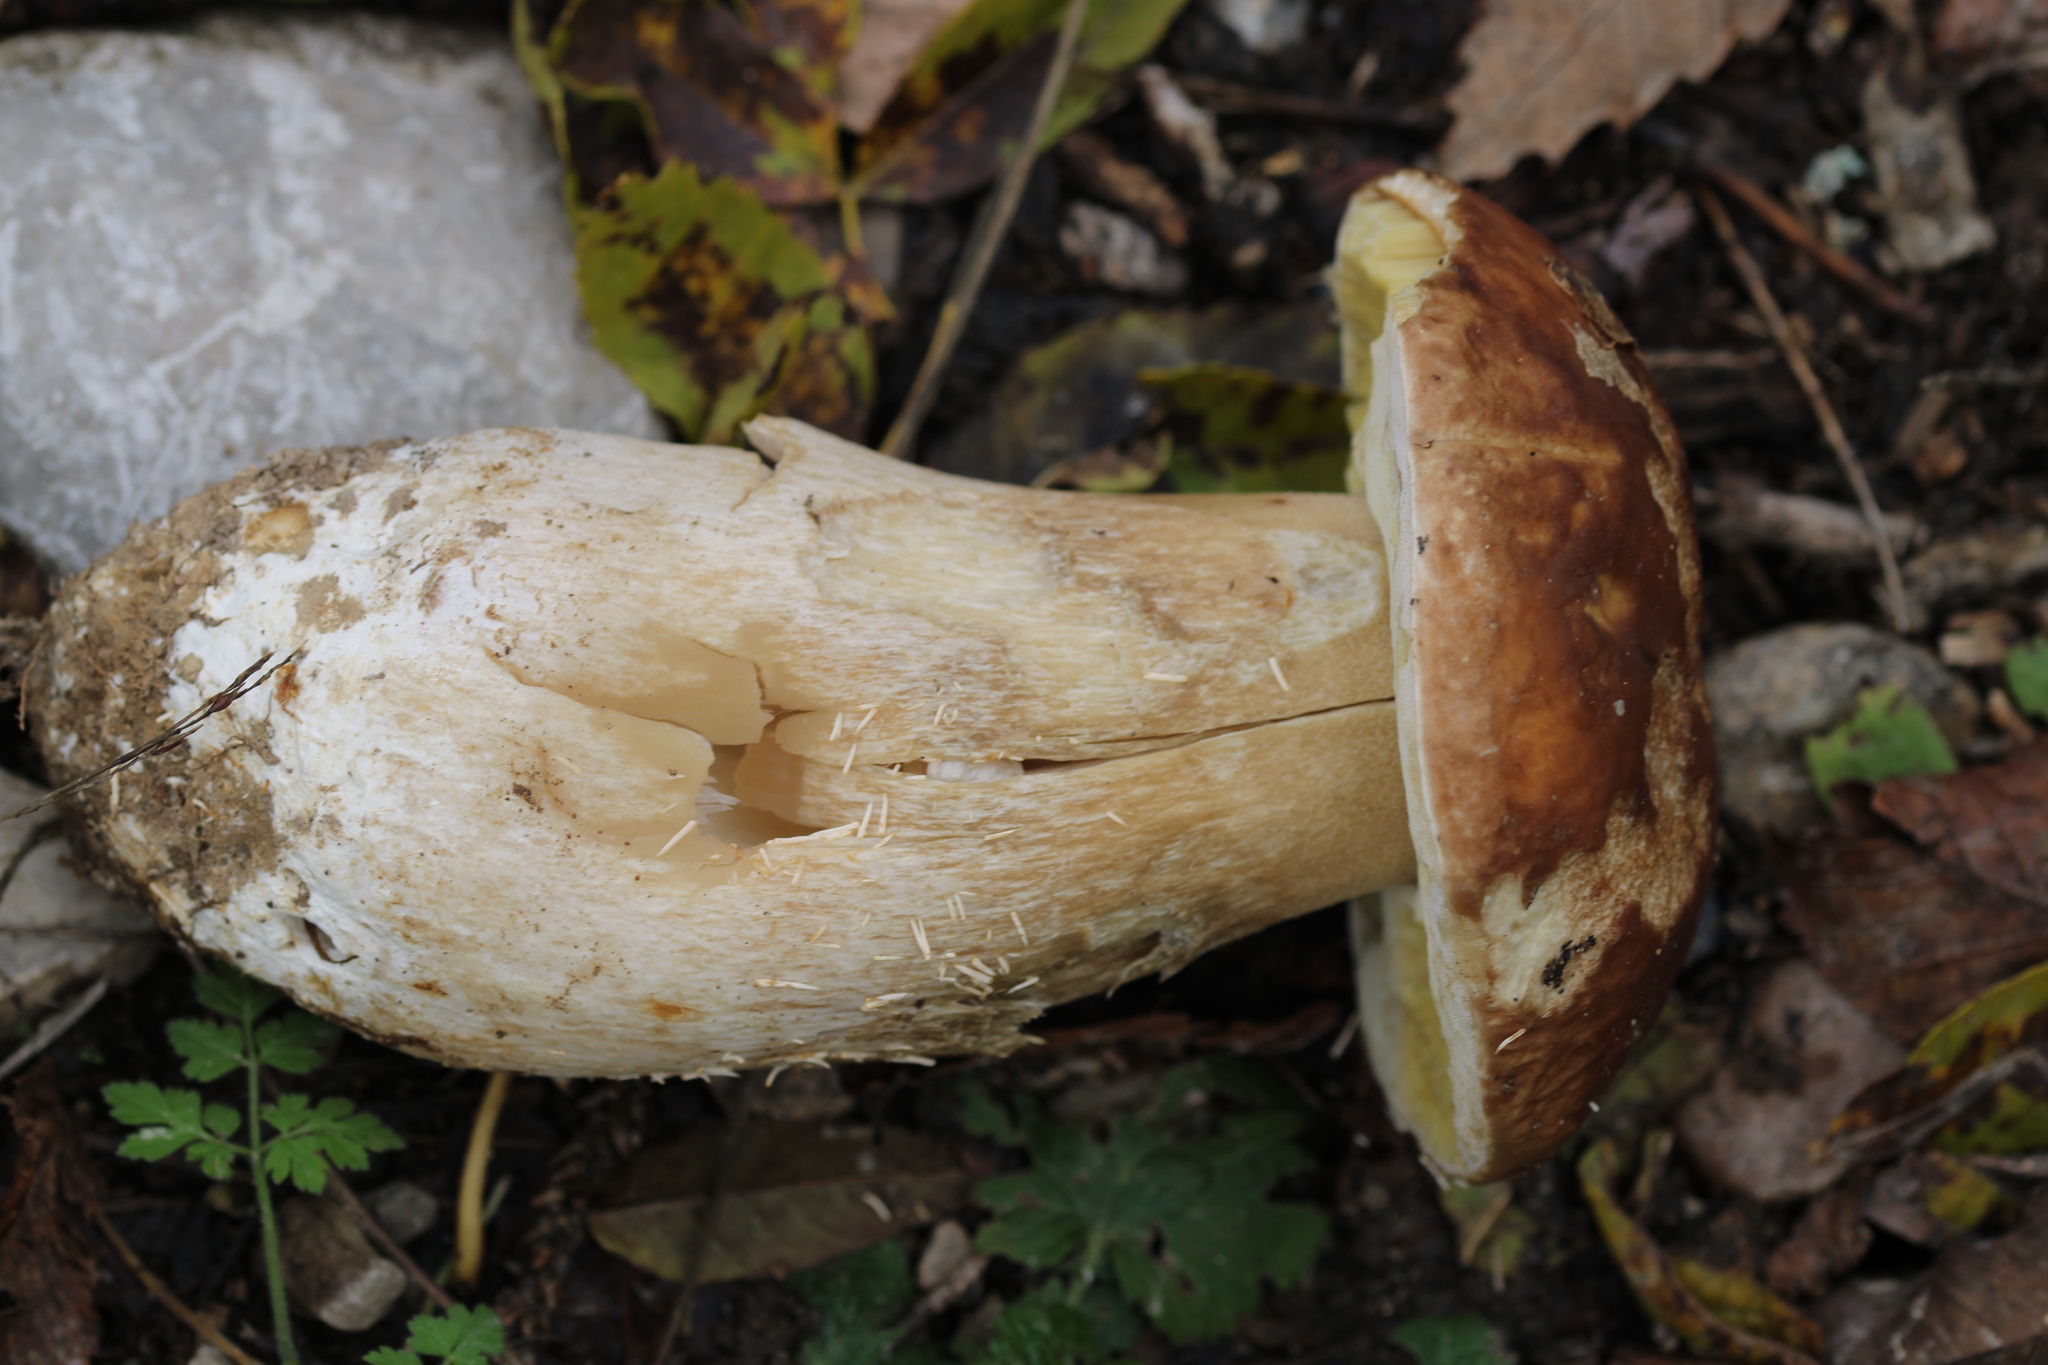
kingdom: Fungi
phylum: Basidiomycota
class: Agaricomycetes
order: Boletales
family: Boletaceae
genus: Boletus
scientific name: Boletus edulis
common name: Cep
